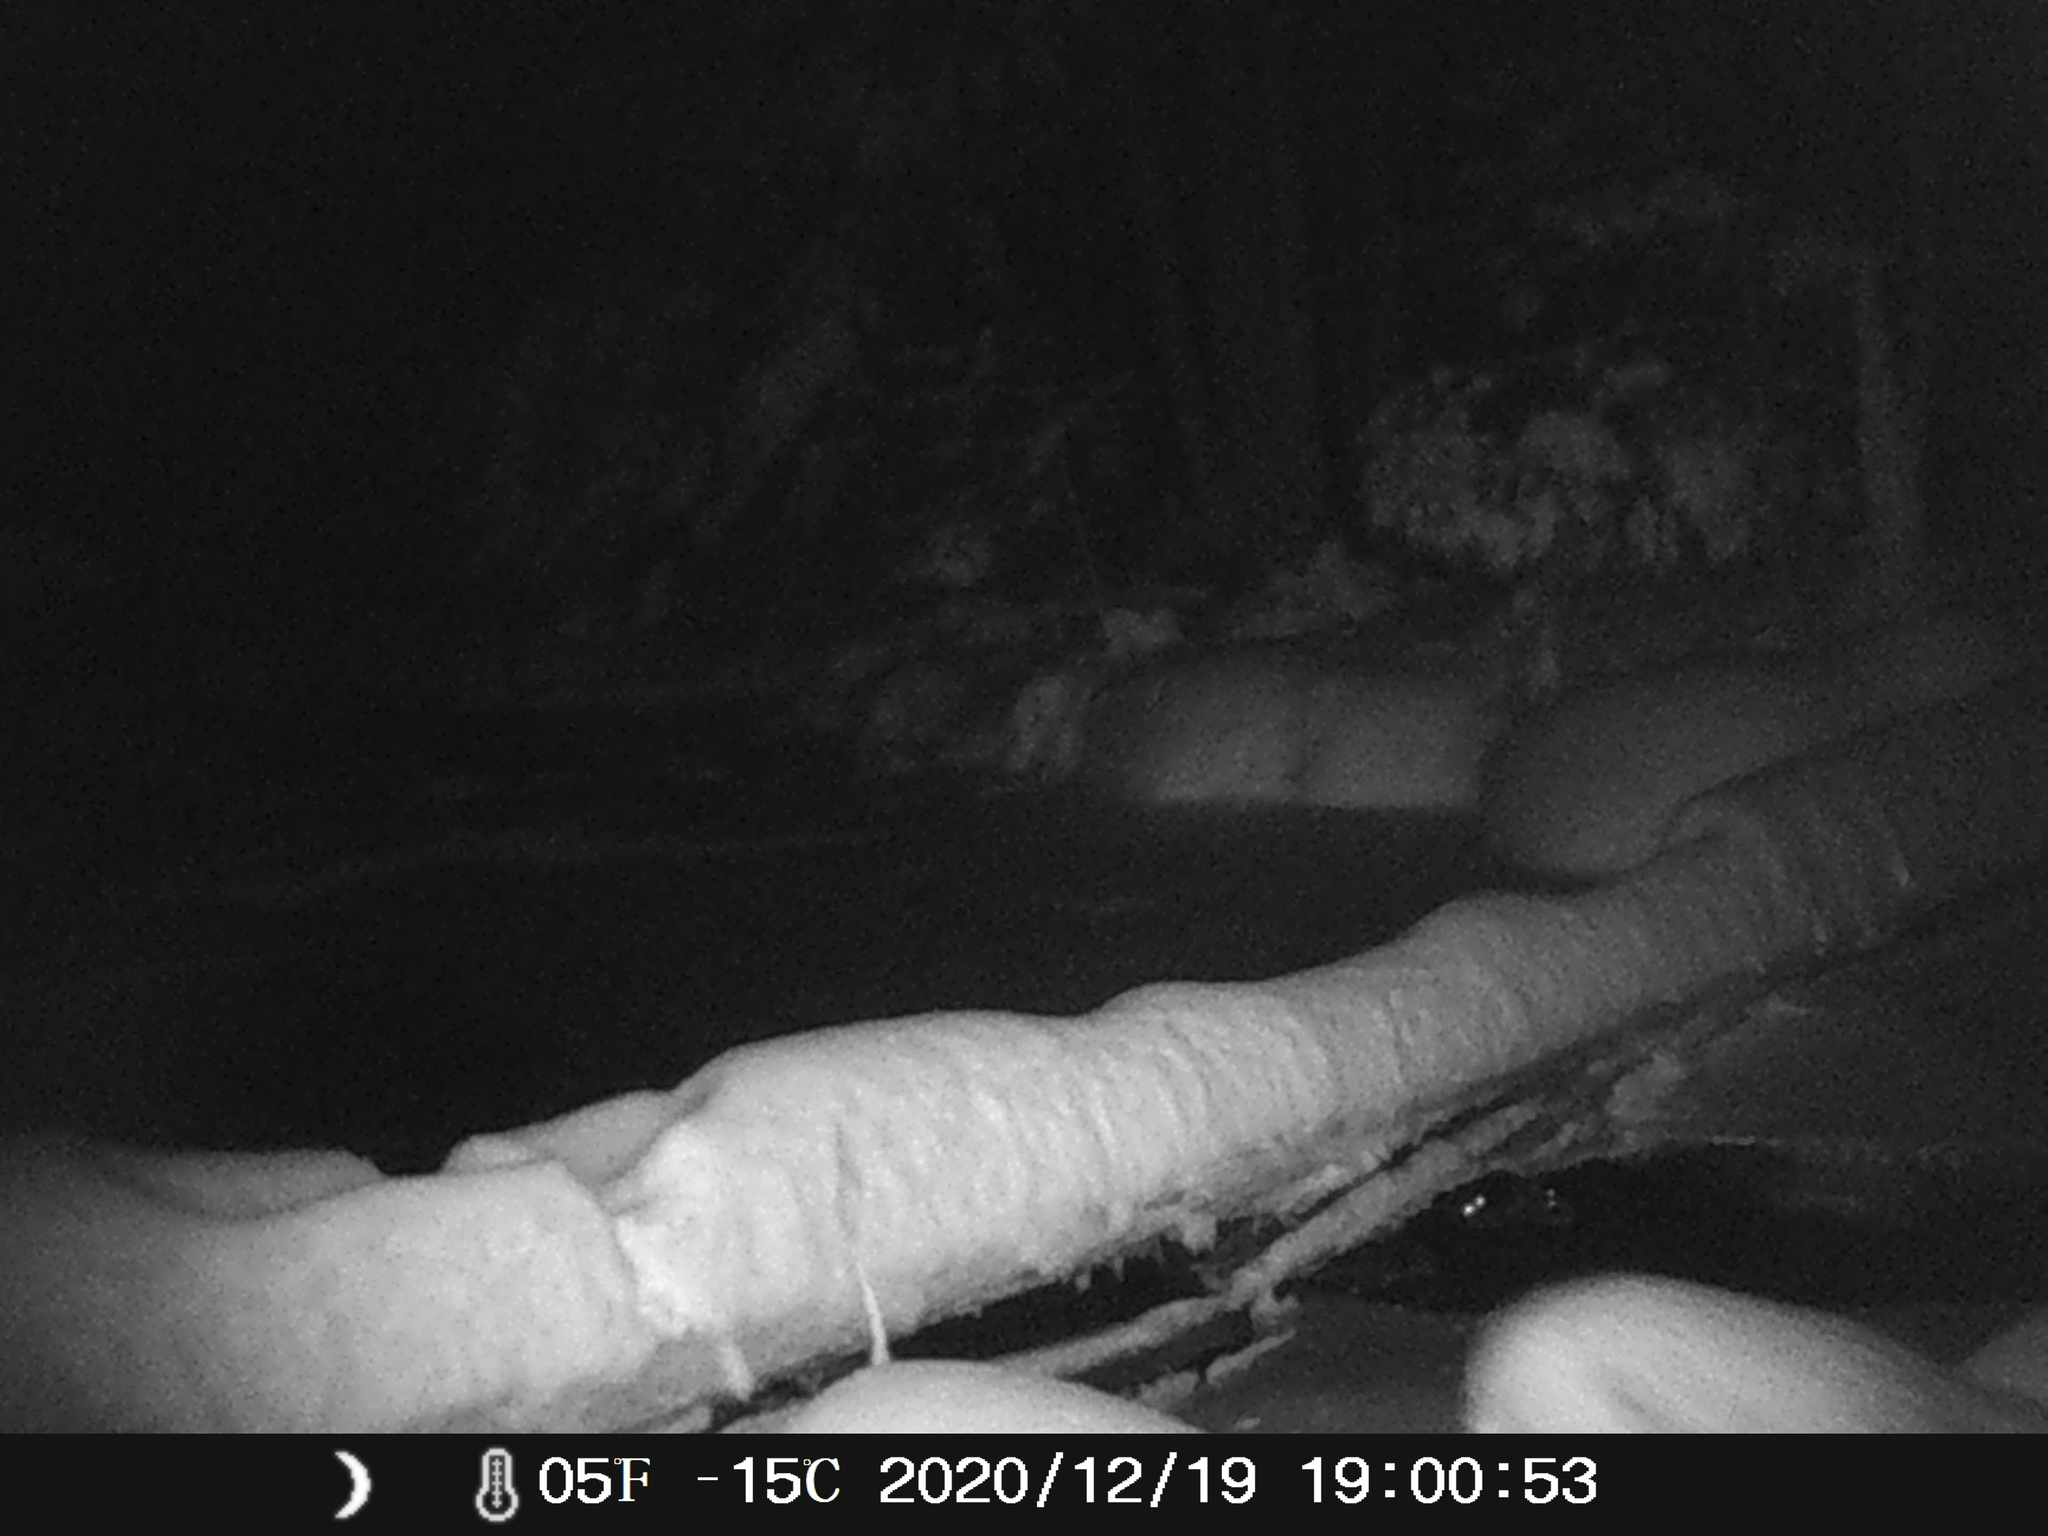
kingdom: Animalia
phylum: Chordata
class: Mammalia
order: Carnivora
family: Ursidae
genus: Ursus
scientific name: Ursus americanus
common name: American black bear
